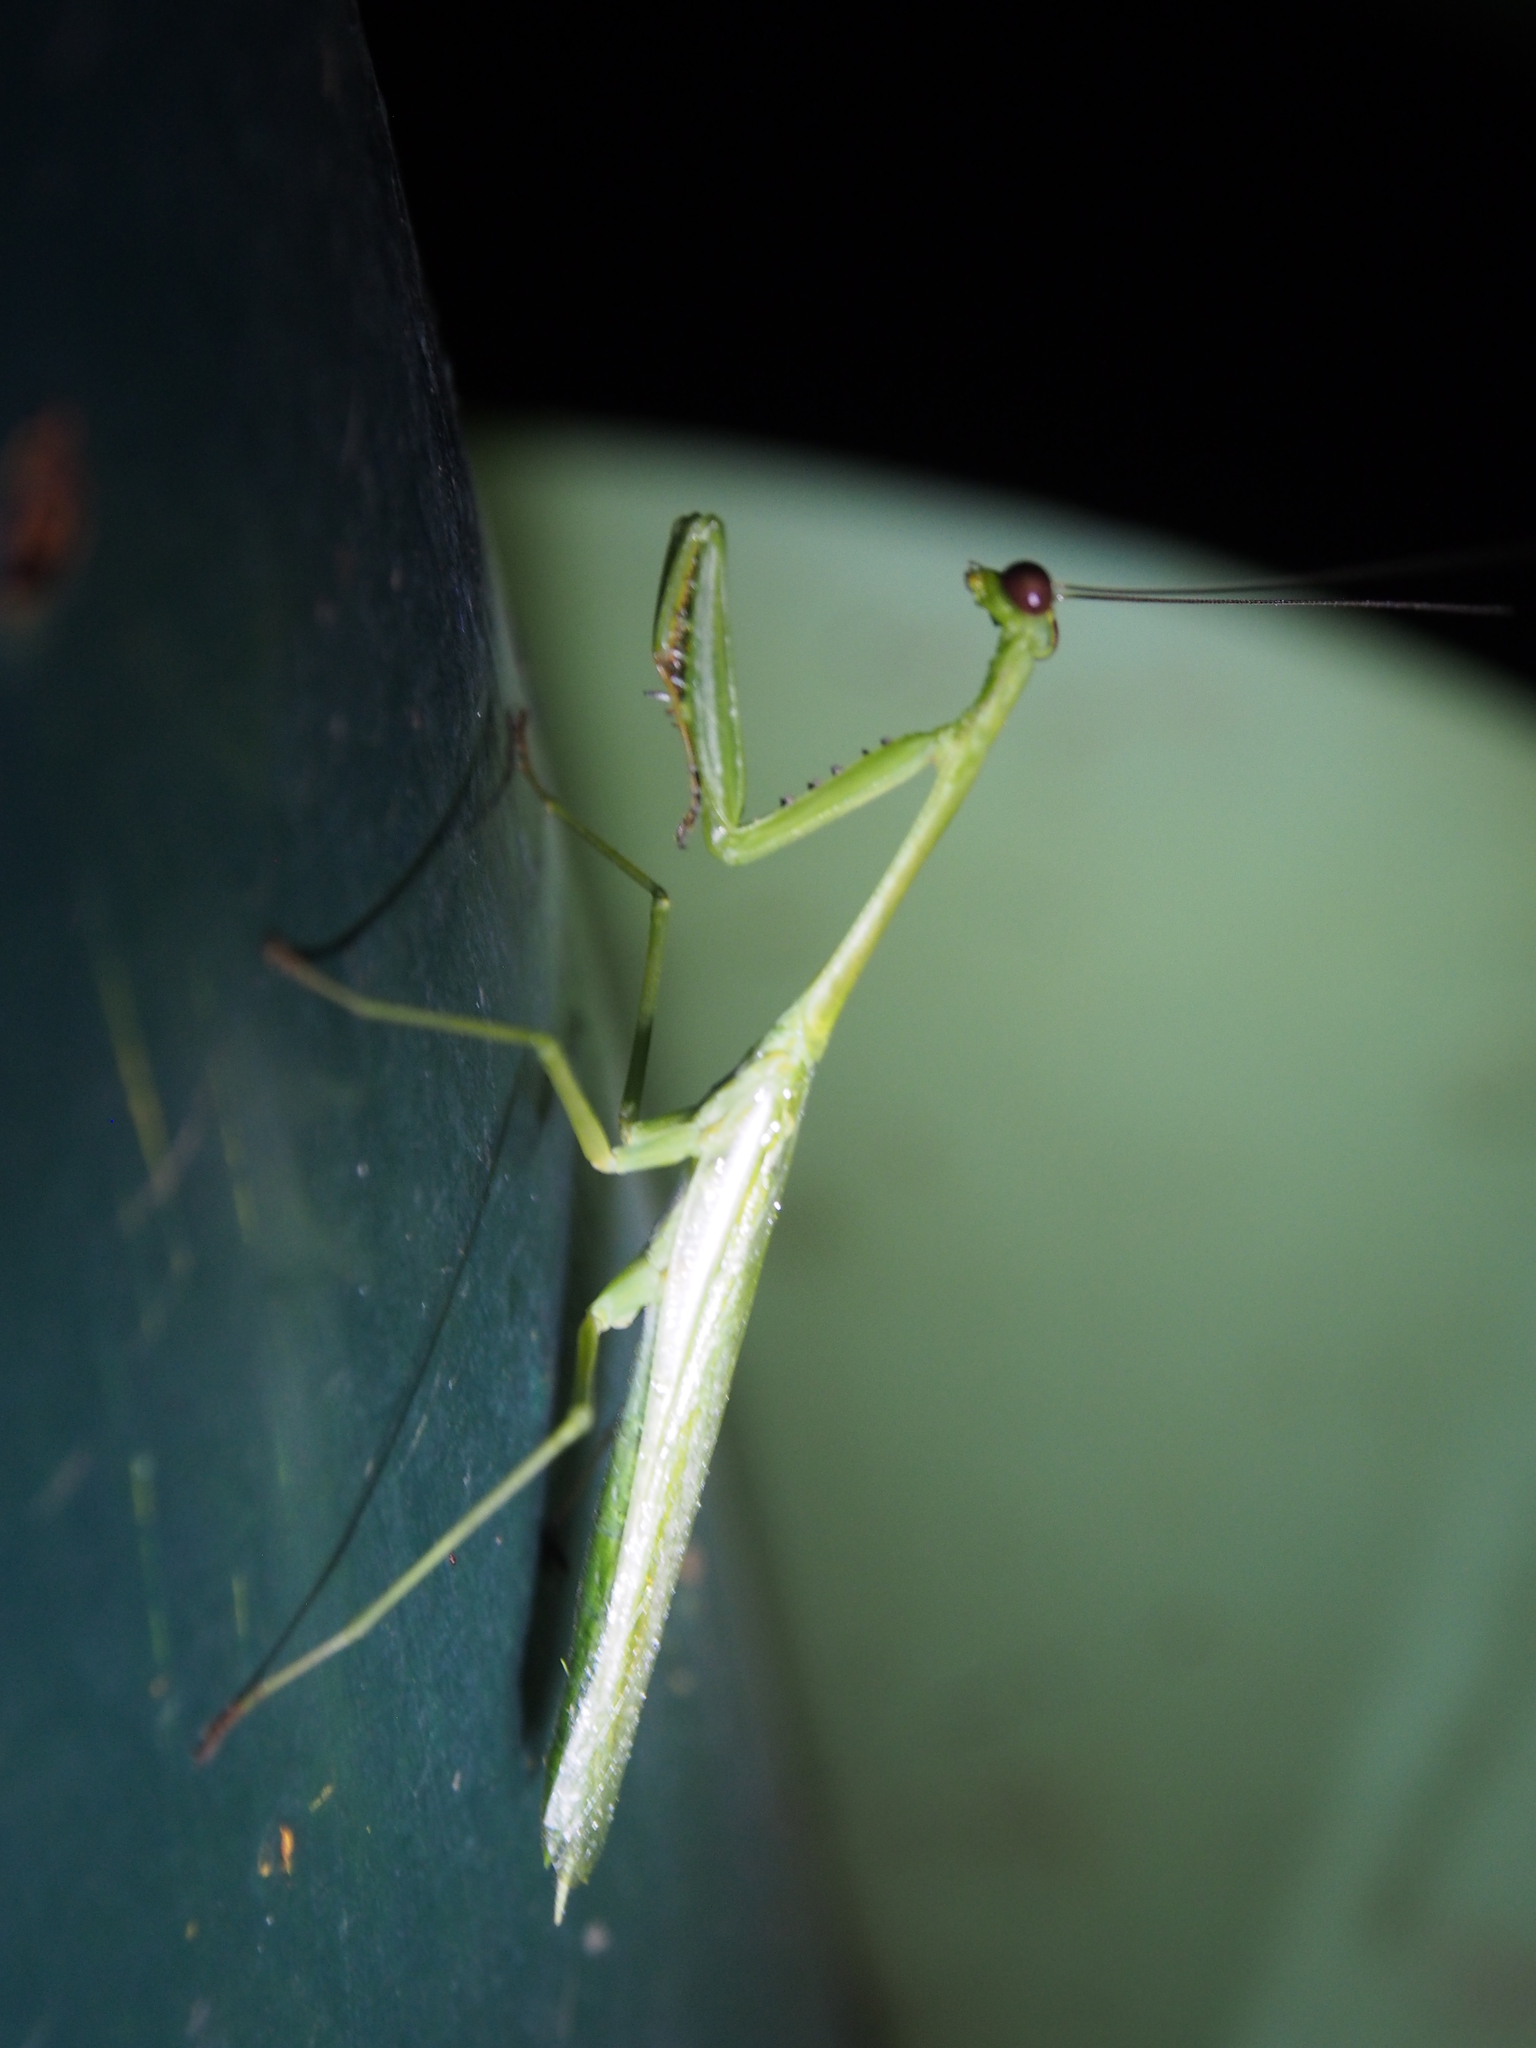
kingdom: Animalia
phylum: Arthropoda
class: Insecta
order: Mantodea
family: Mantidae
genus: Stagmomantis
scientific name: Stagmomantis theophila
